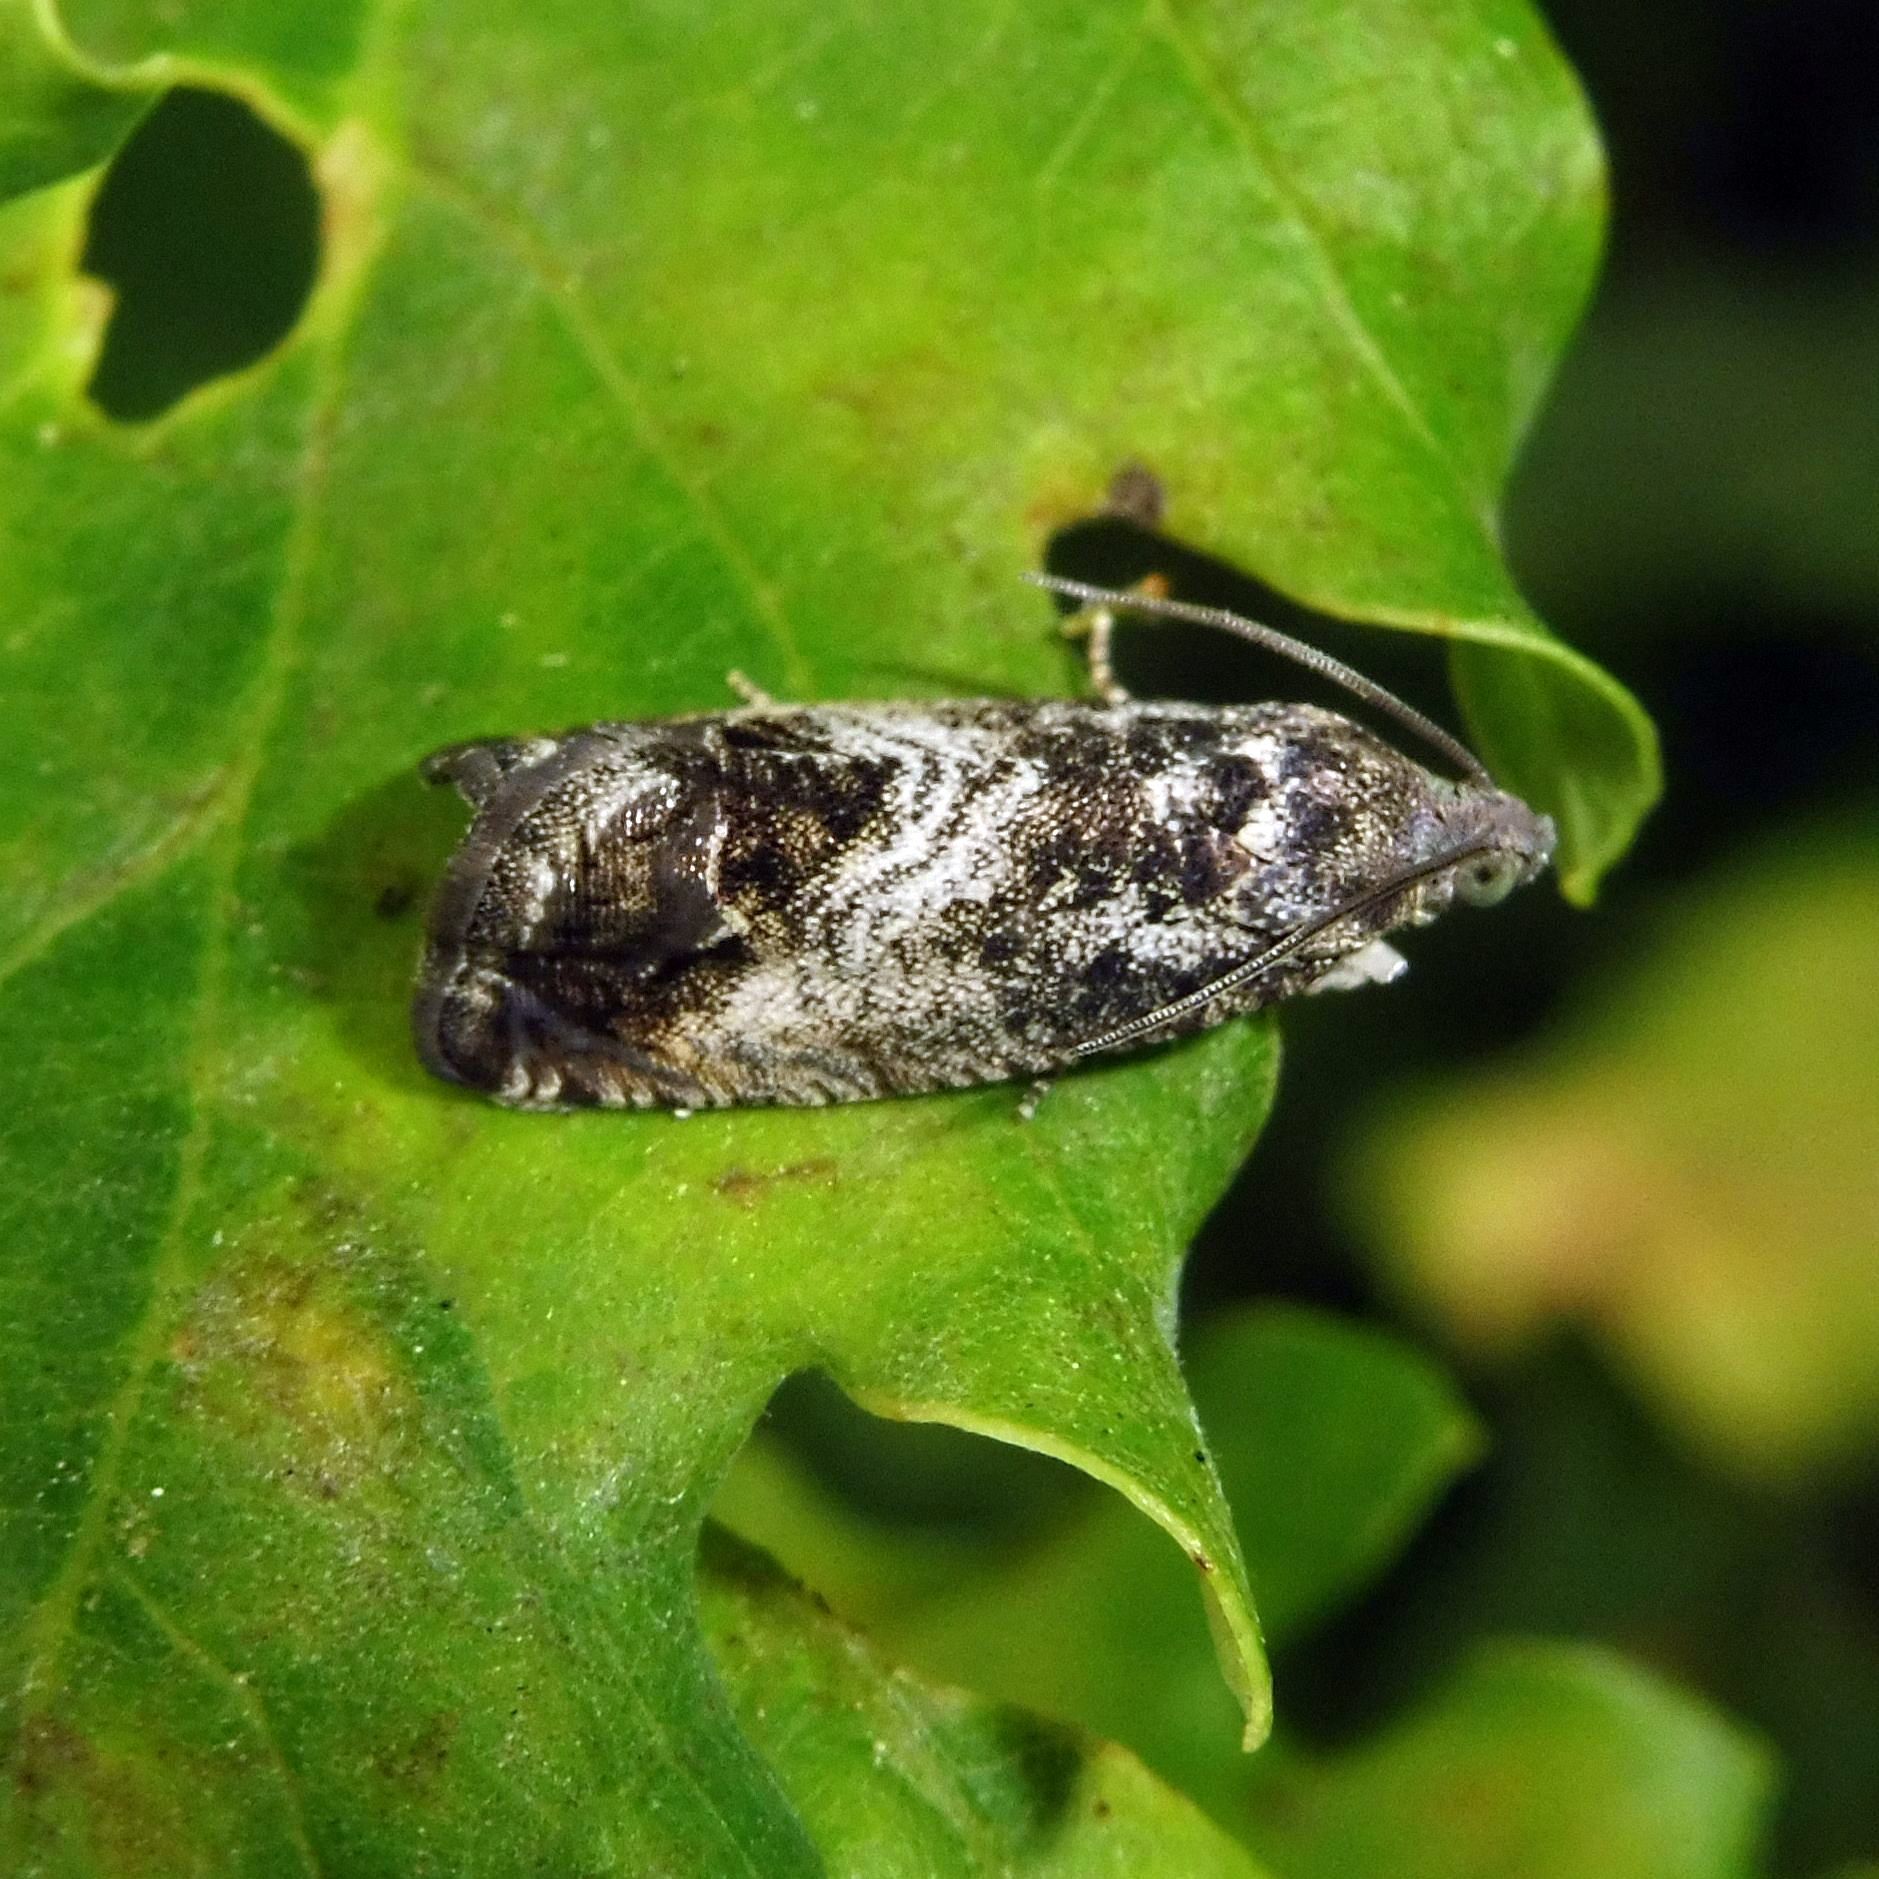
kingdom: Animalia
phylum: Arthropoda
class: Insecta
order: Lepidoptera
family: Tortricidae
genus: Cydia
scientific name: Cydia fagiglandana
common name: Large beech piercer
